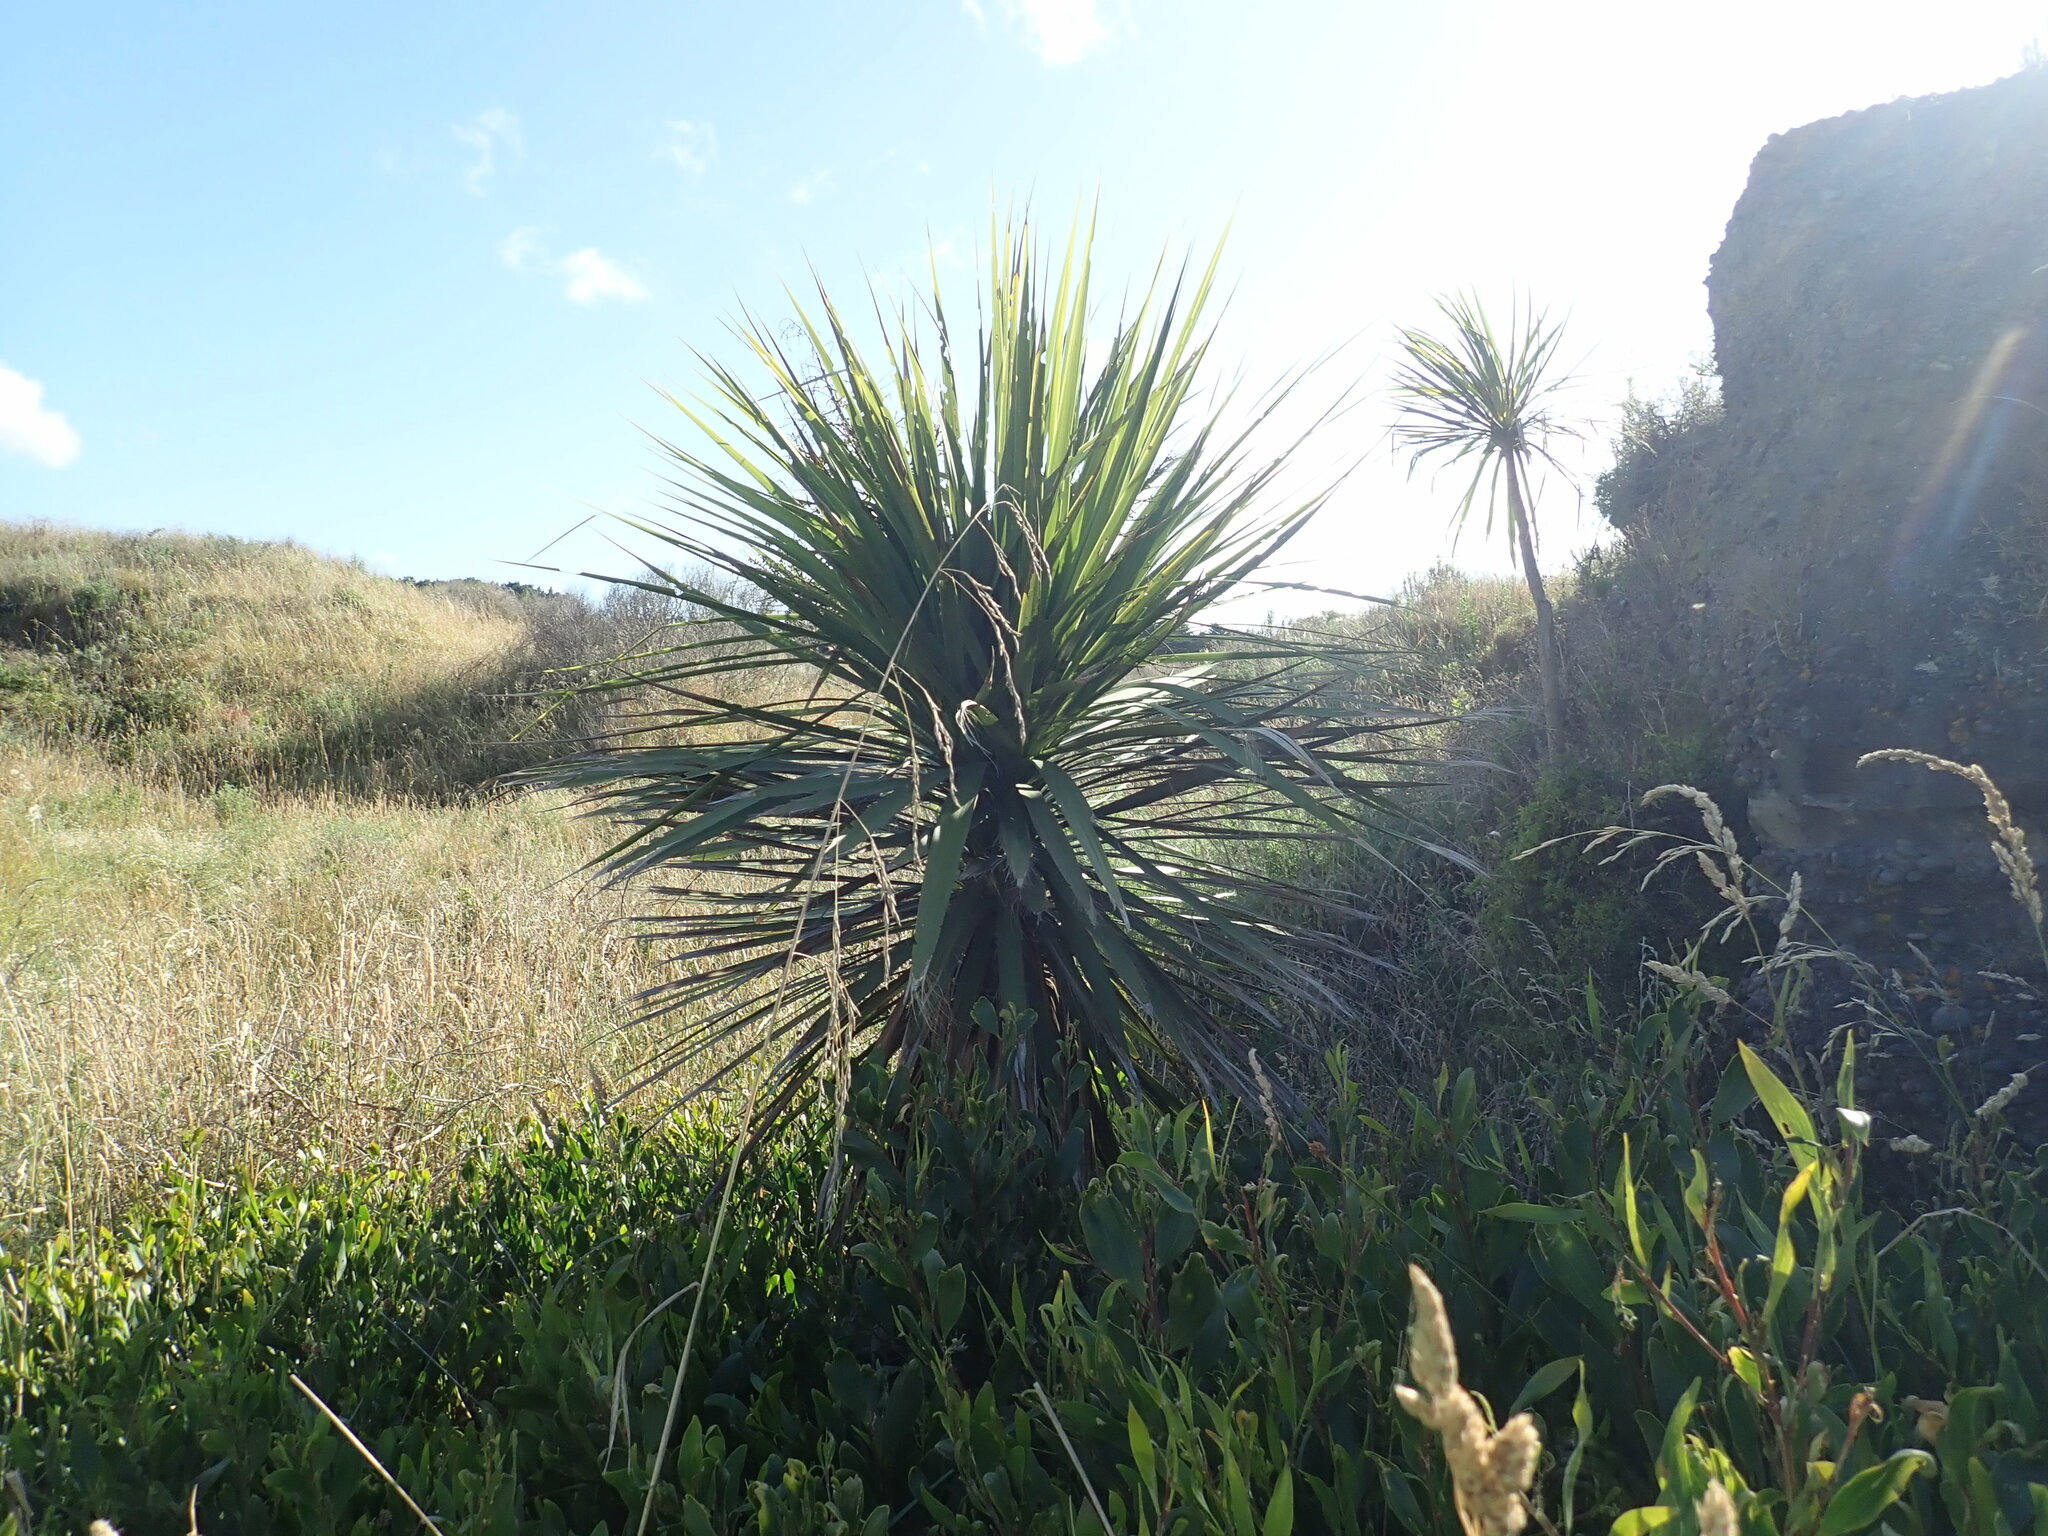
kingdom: Plantae
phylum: Tracheophyta
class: Liliopsida
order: Asparagales
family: Asparagaceae
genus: Cordyline
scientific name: Cordyline australis
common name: Cabbage-palm
